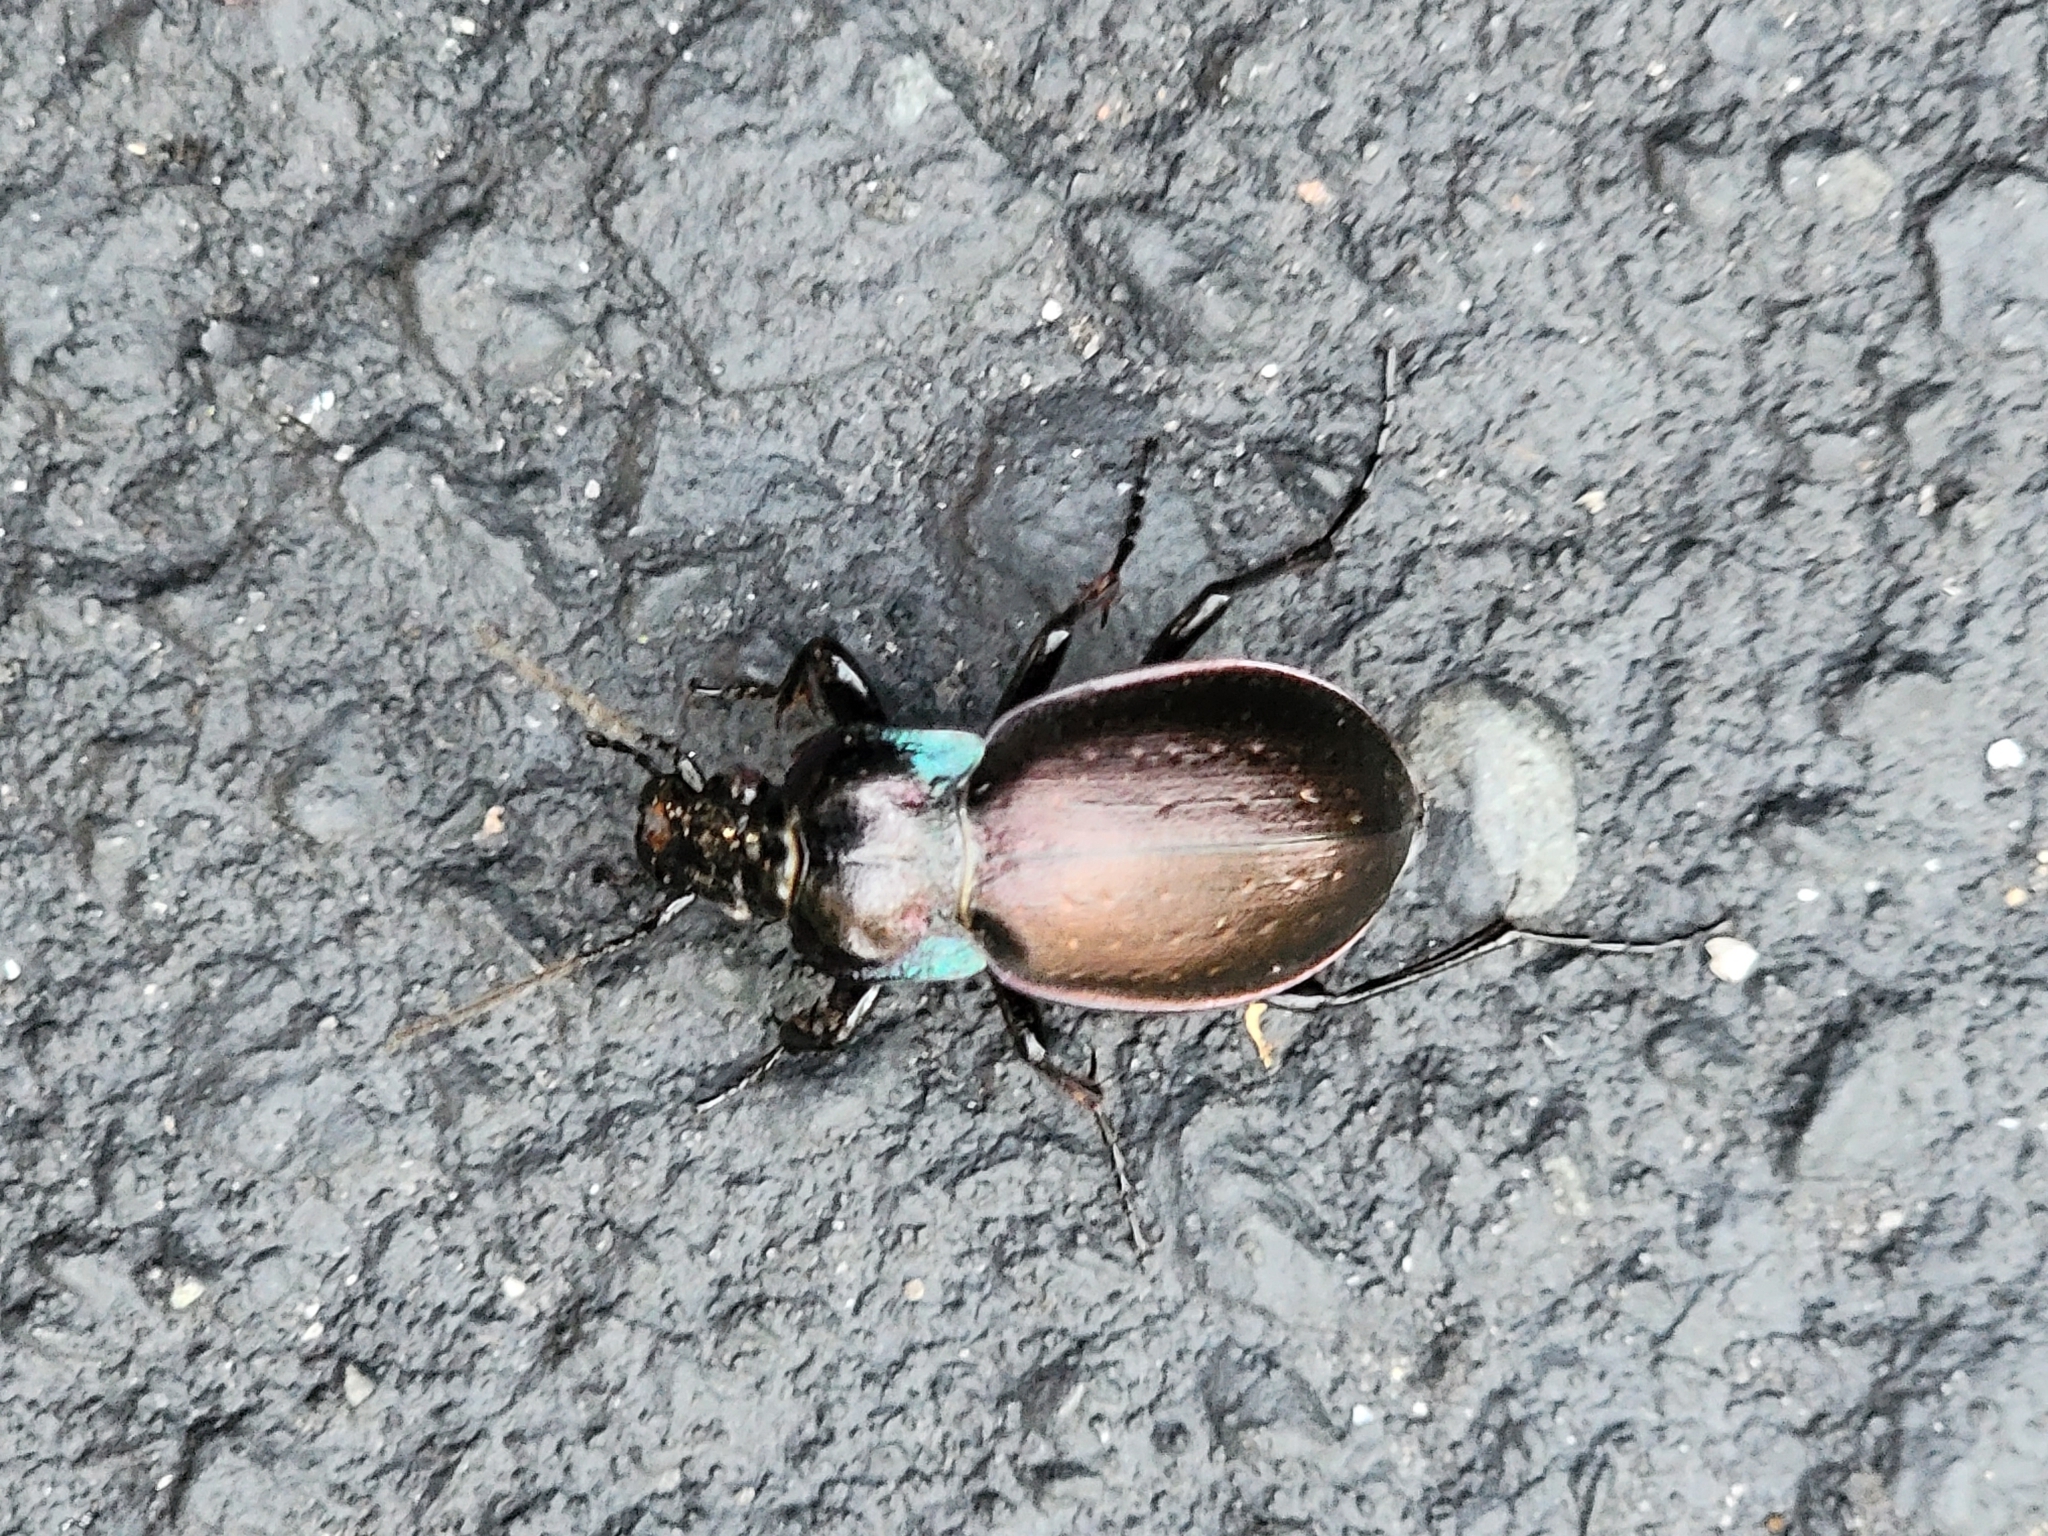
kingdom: Animalia
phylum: Arthropoda
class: Insecta
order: Coleoptera
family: Carabidae
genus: Carabus
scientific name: Carabus nemoralis
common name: European ground beetle
